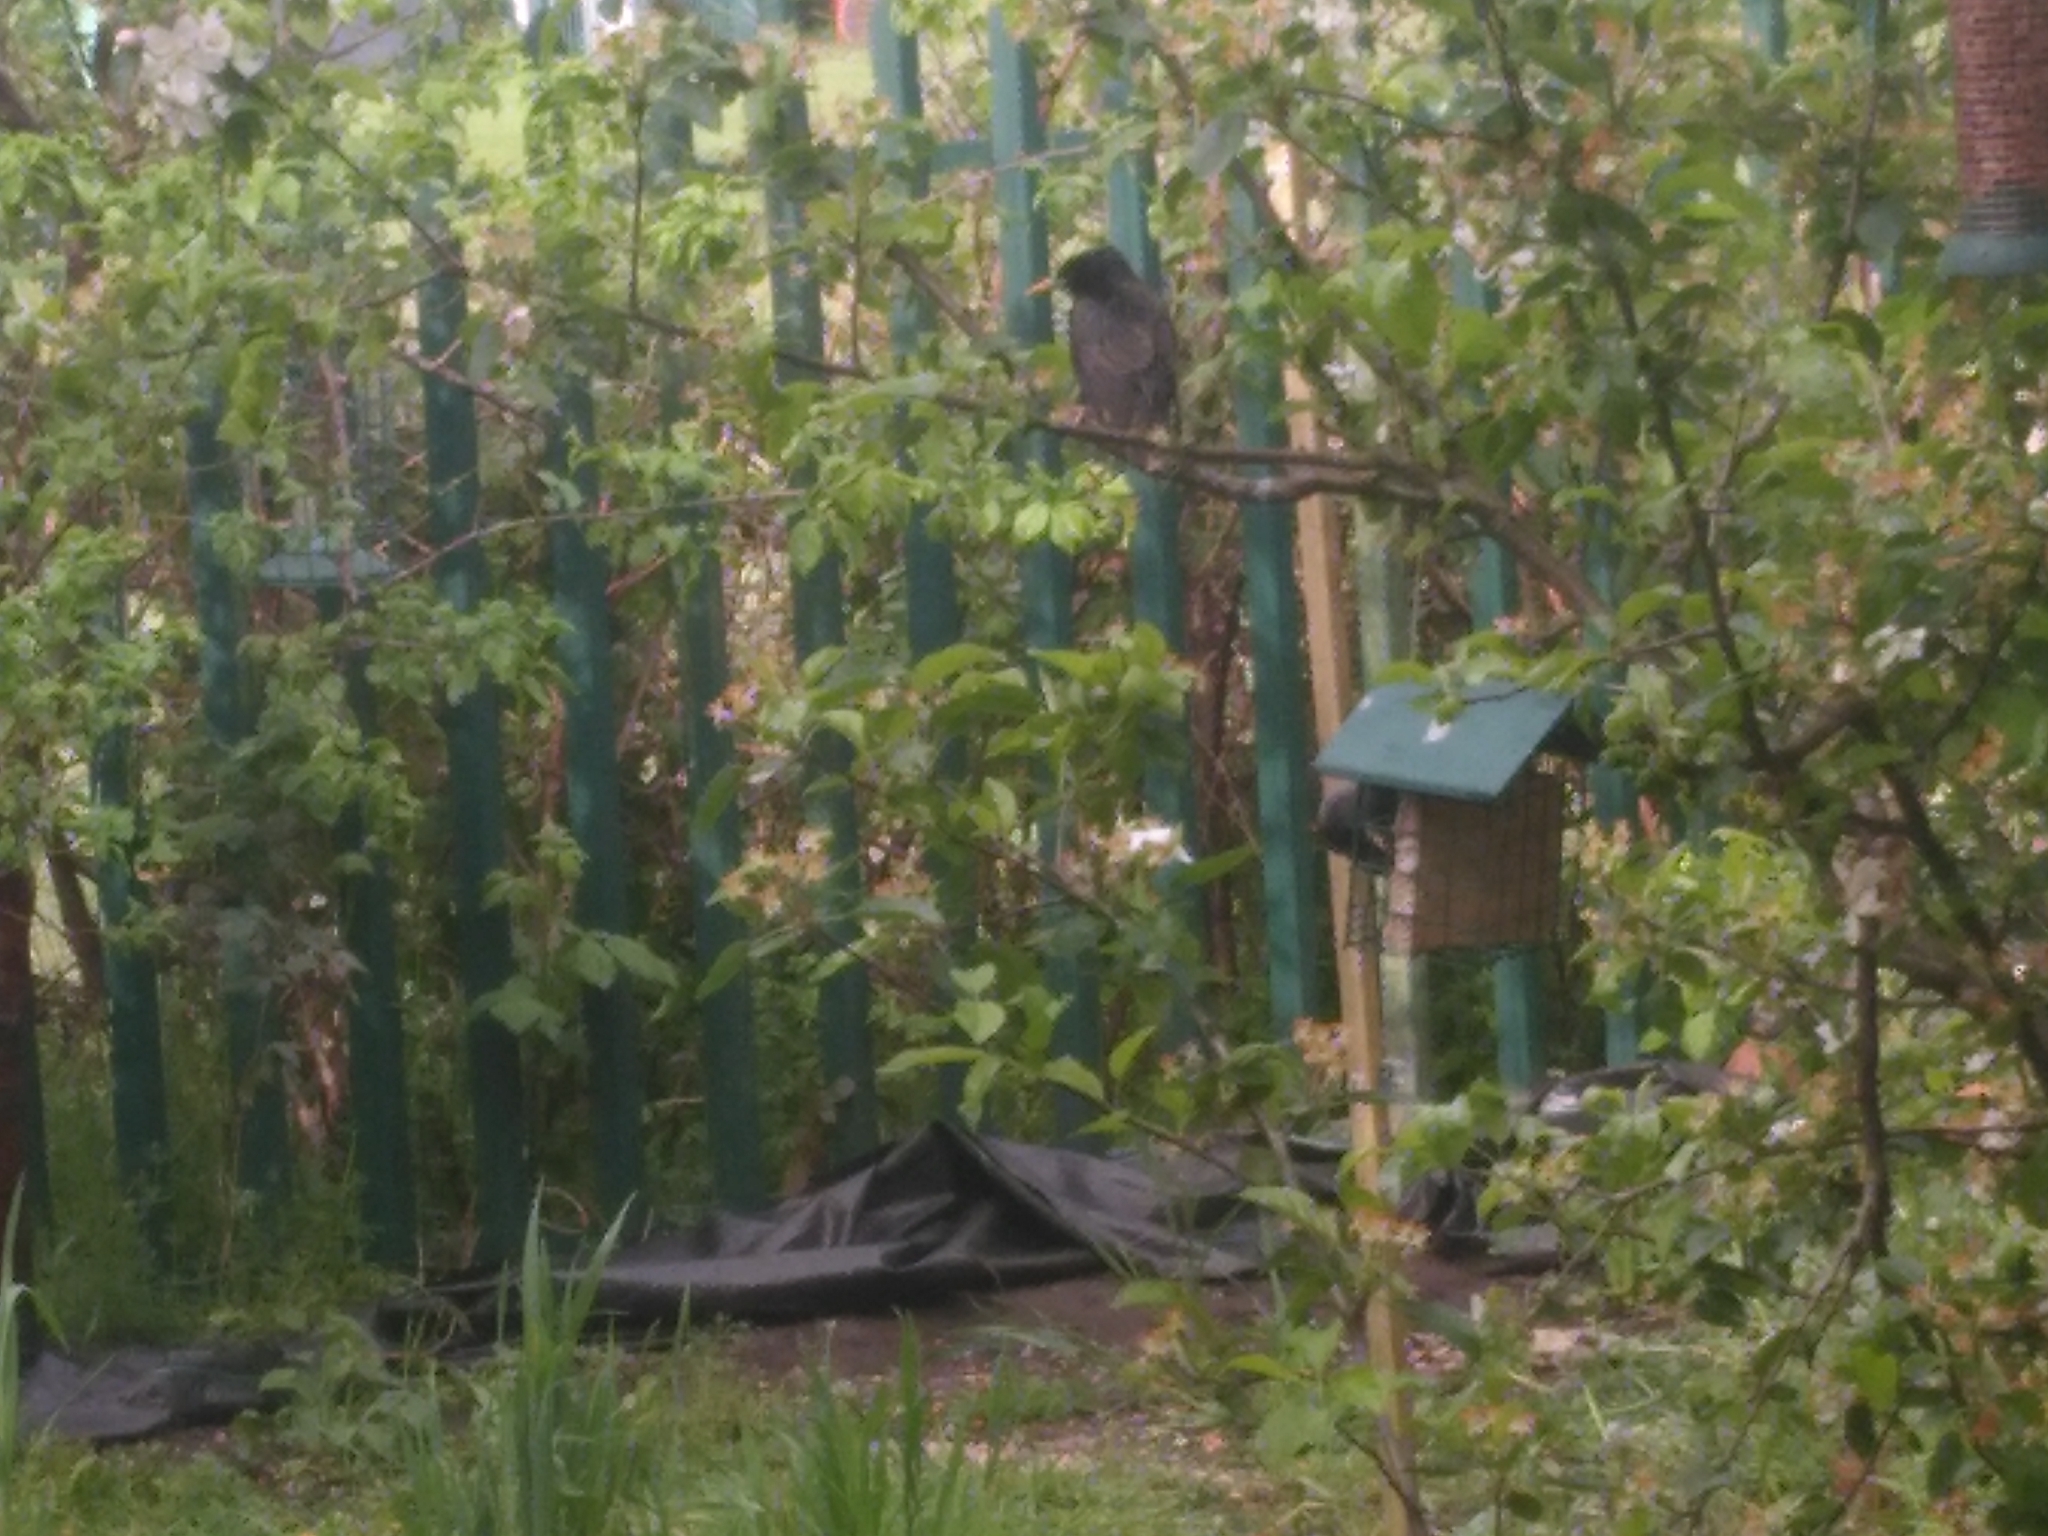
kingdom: Animalia
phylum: Chordata
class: Aves
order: Passeriformes
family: Sturnidae
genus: Sturnus
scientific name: Sturnus vulgaris
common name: Common starling
